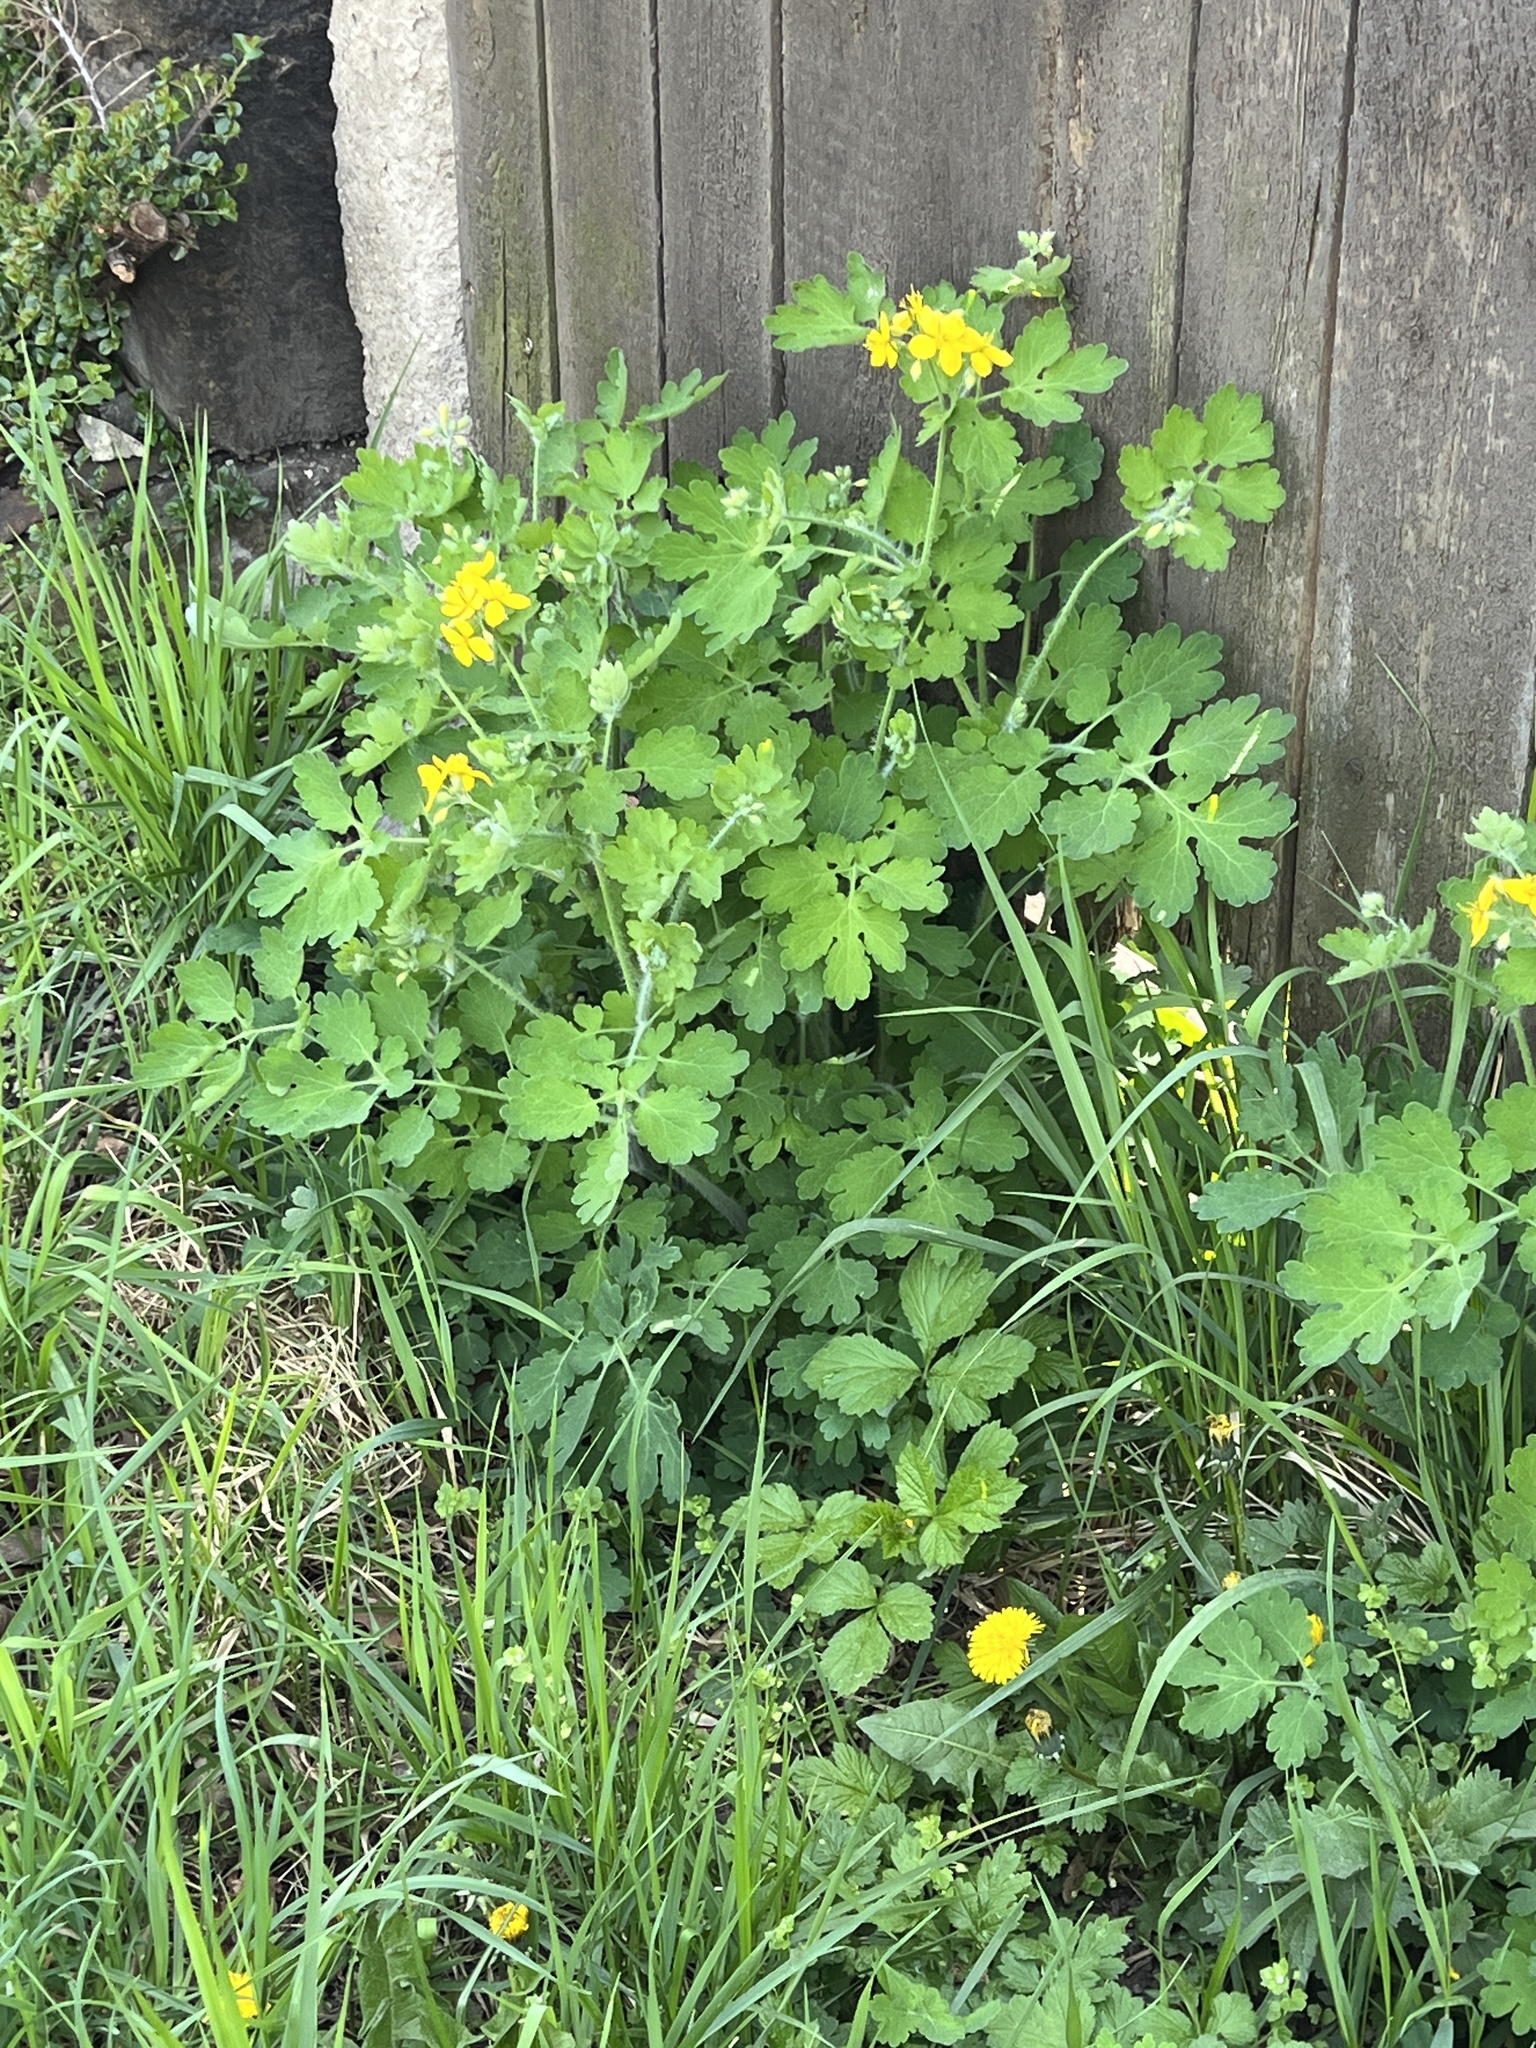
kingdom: Plantae
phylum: Tracheophyta
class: Magnoliopsida
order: Ranunculales
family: Papaveraceae
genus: Chelidonium
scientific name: Chelidonium majus
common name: Greater celandine
